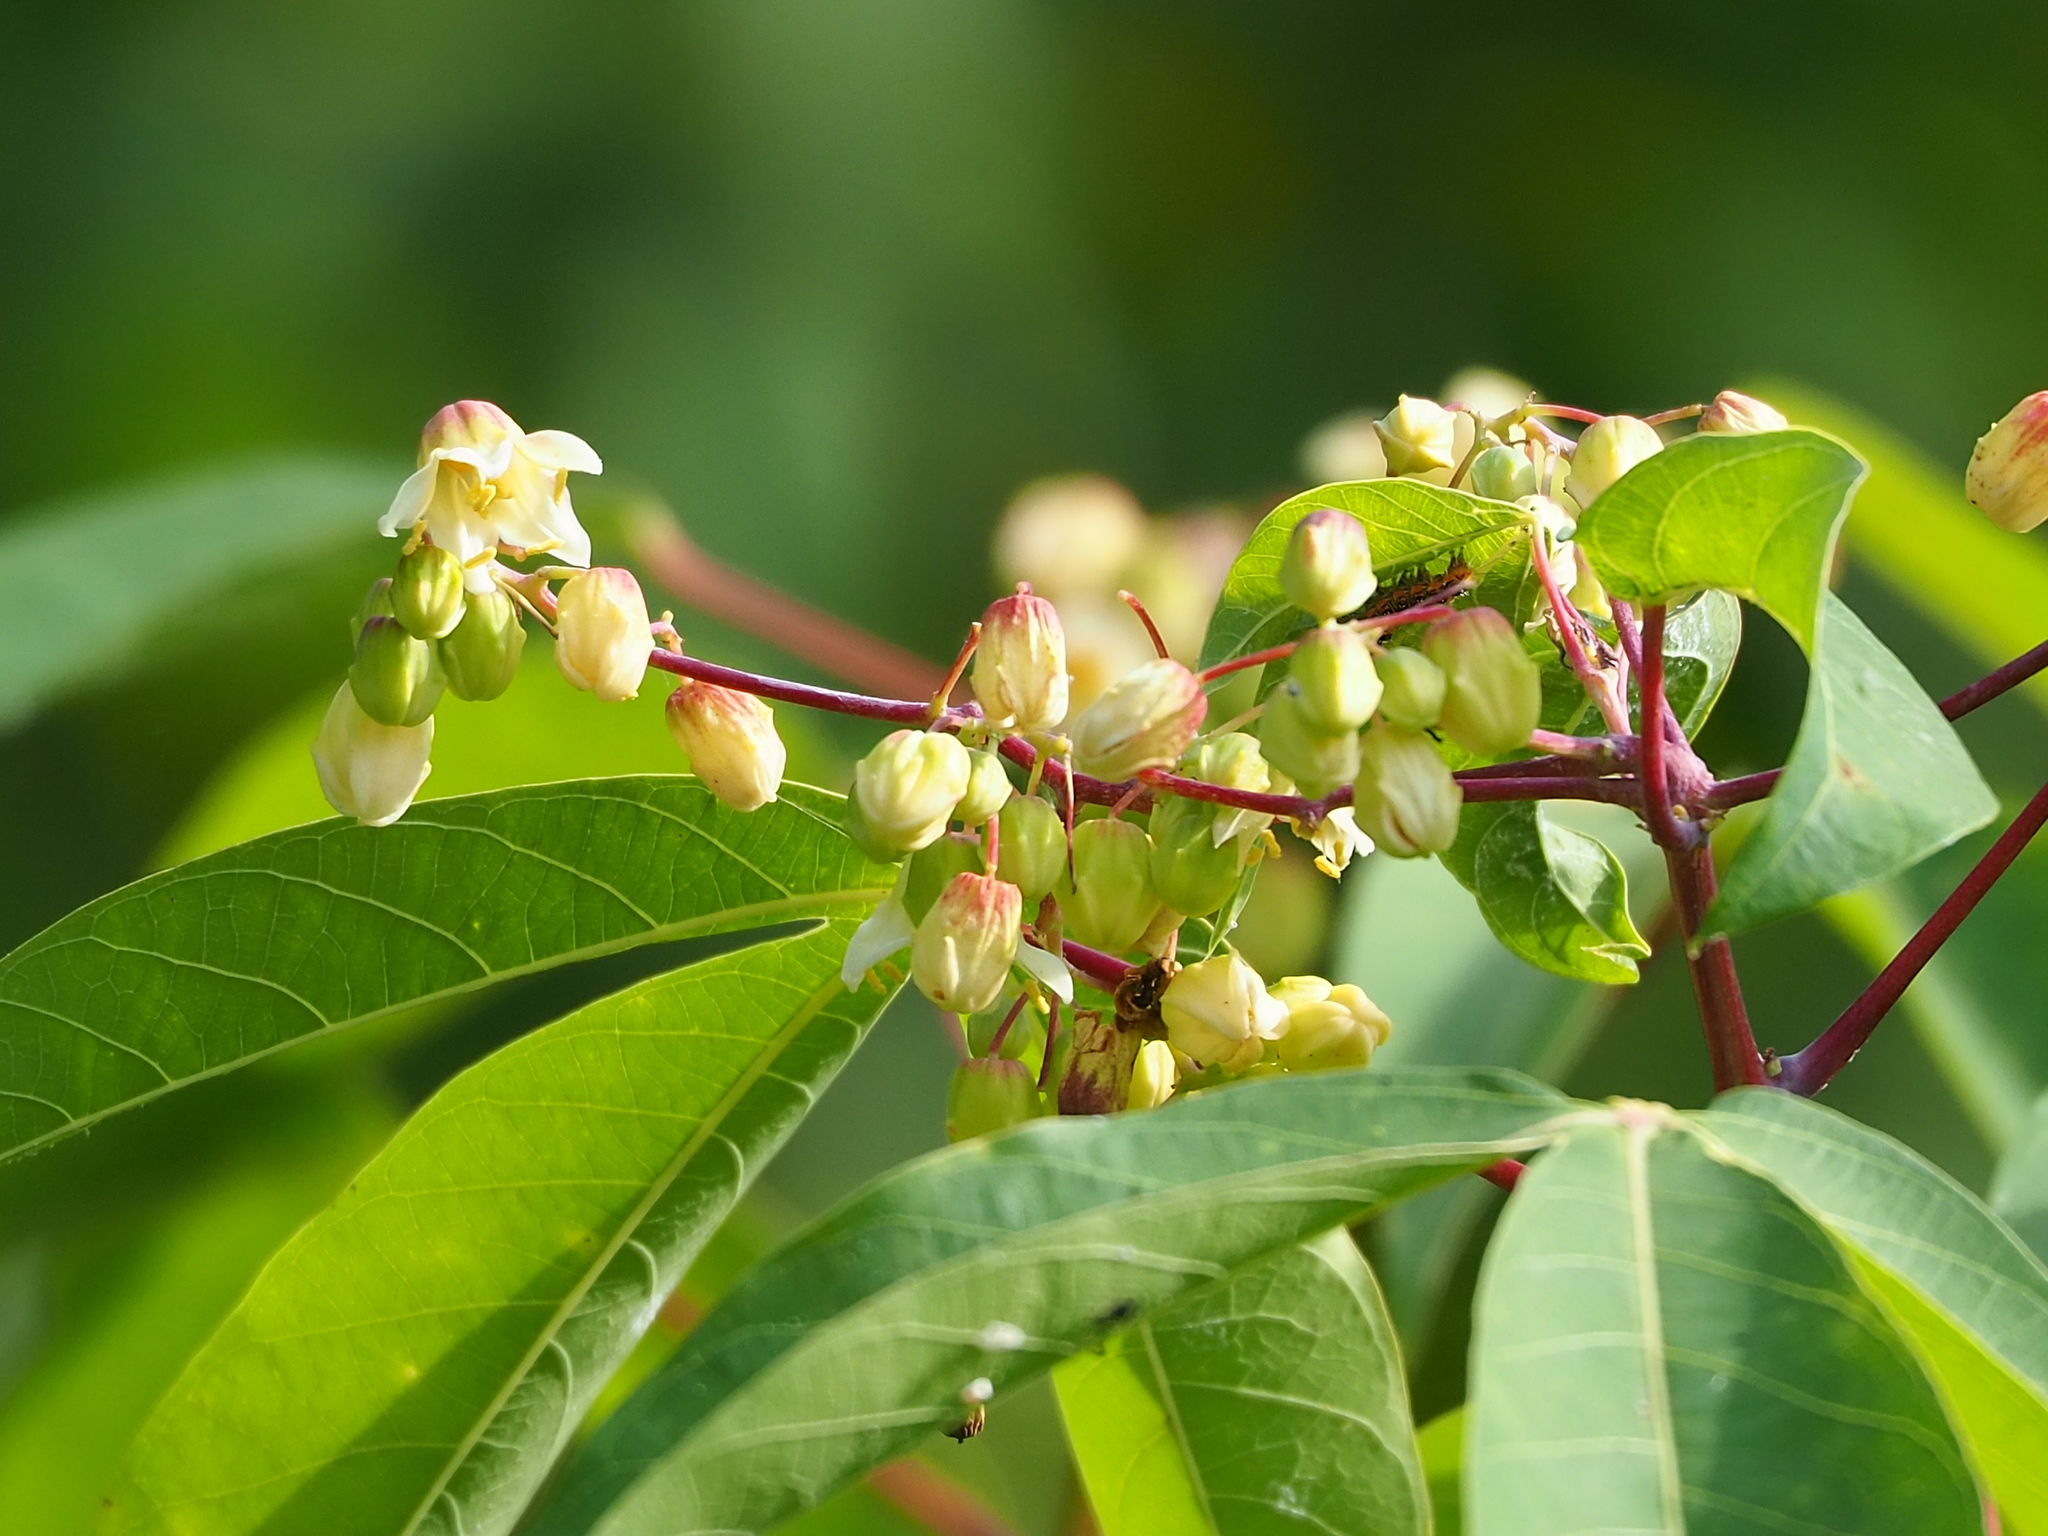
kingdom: Plantae
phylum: Tracheophyta
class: Magnoliopsida
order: Malpighiales
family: Euphorbiaceae
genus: Manihot
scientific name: Manihot esculenta
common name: Cassava
